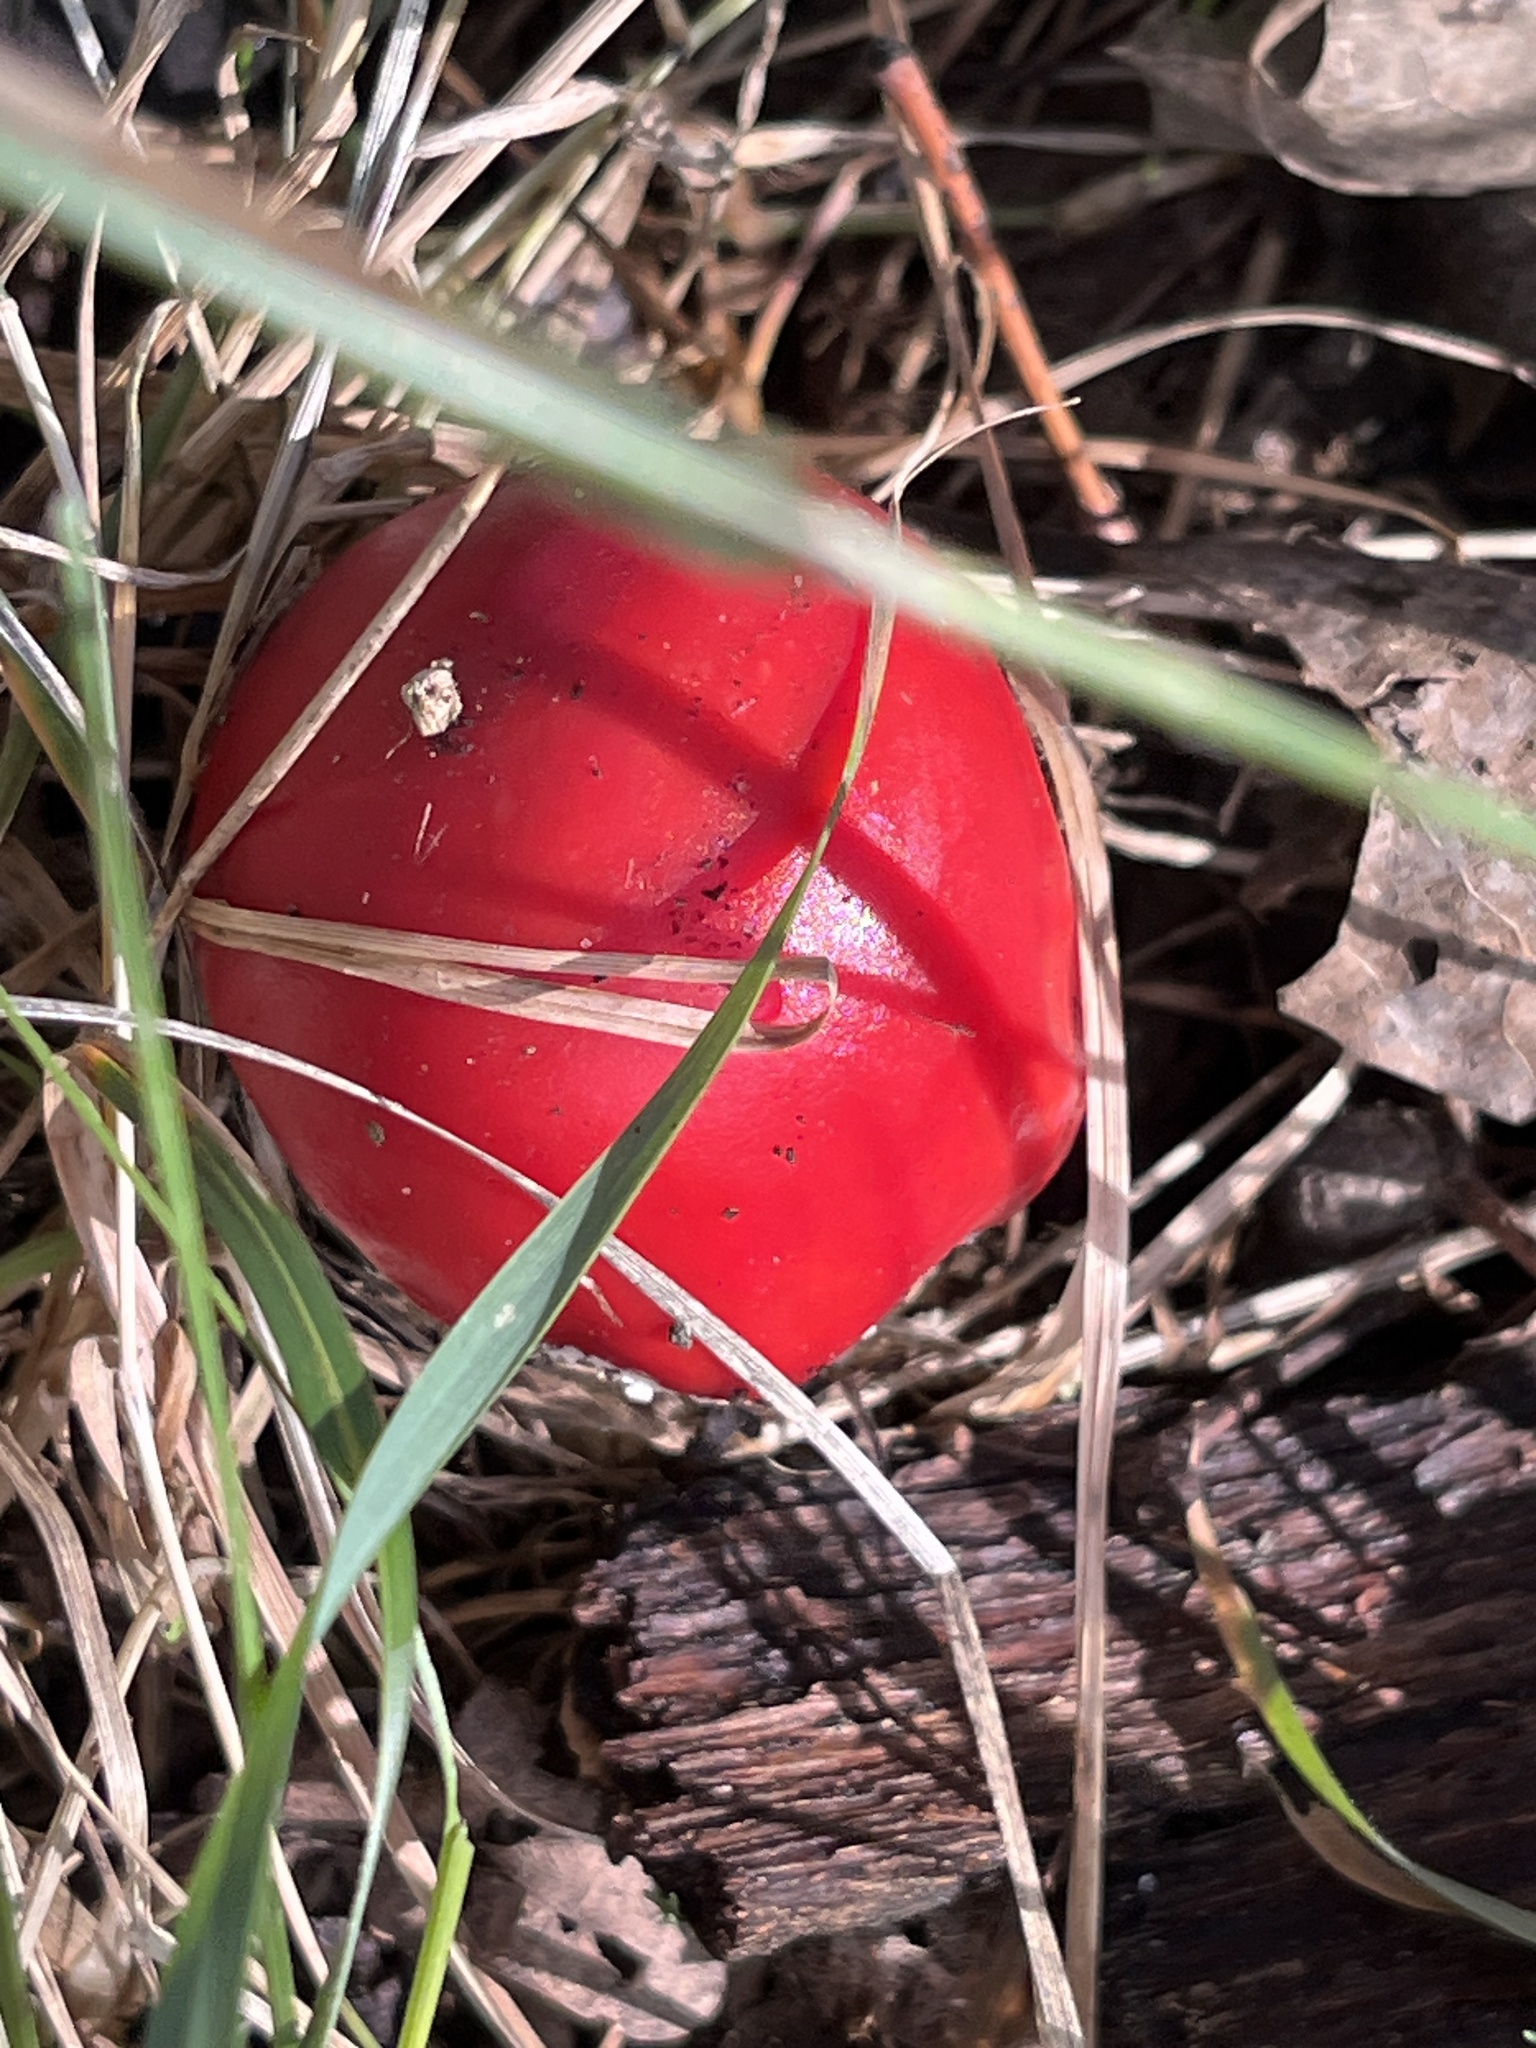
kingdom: Fungi
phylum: Basidiomycota
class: Agaricomycetes
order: Agaricales
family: Amanitaceae
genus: Amanita
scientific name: Amanita muscaria
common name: Fly agaric
